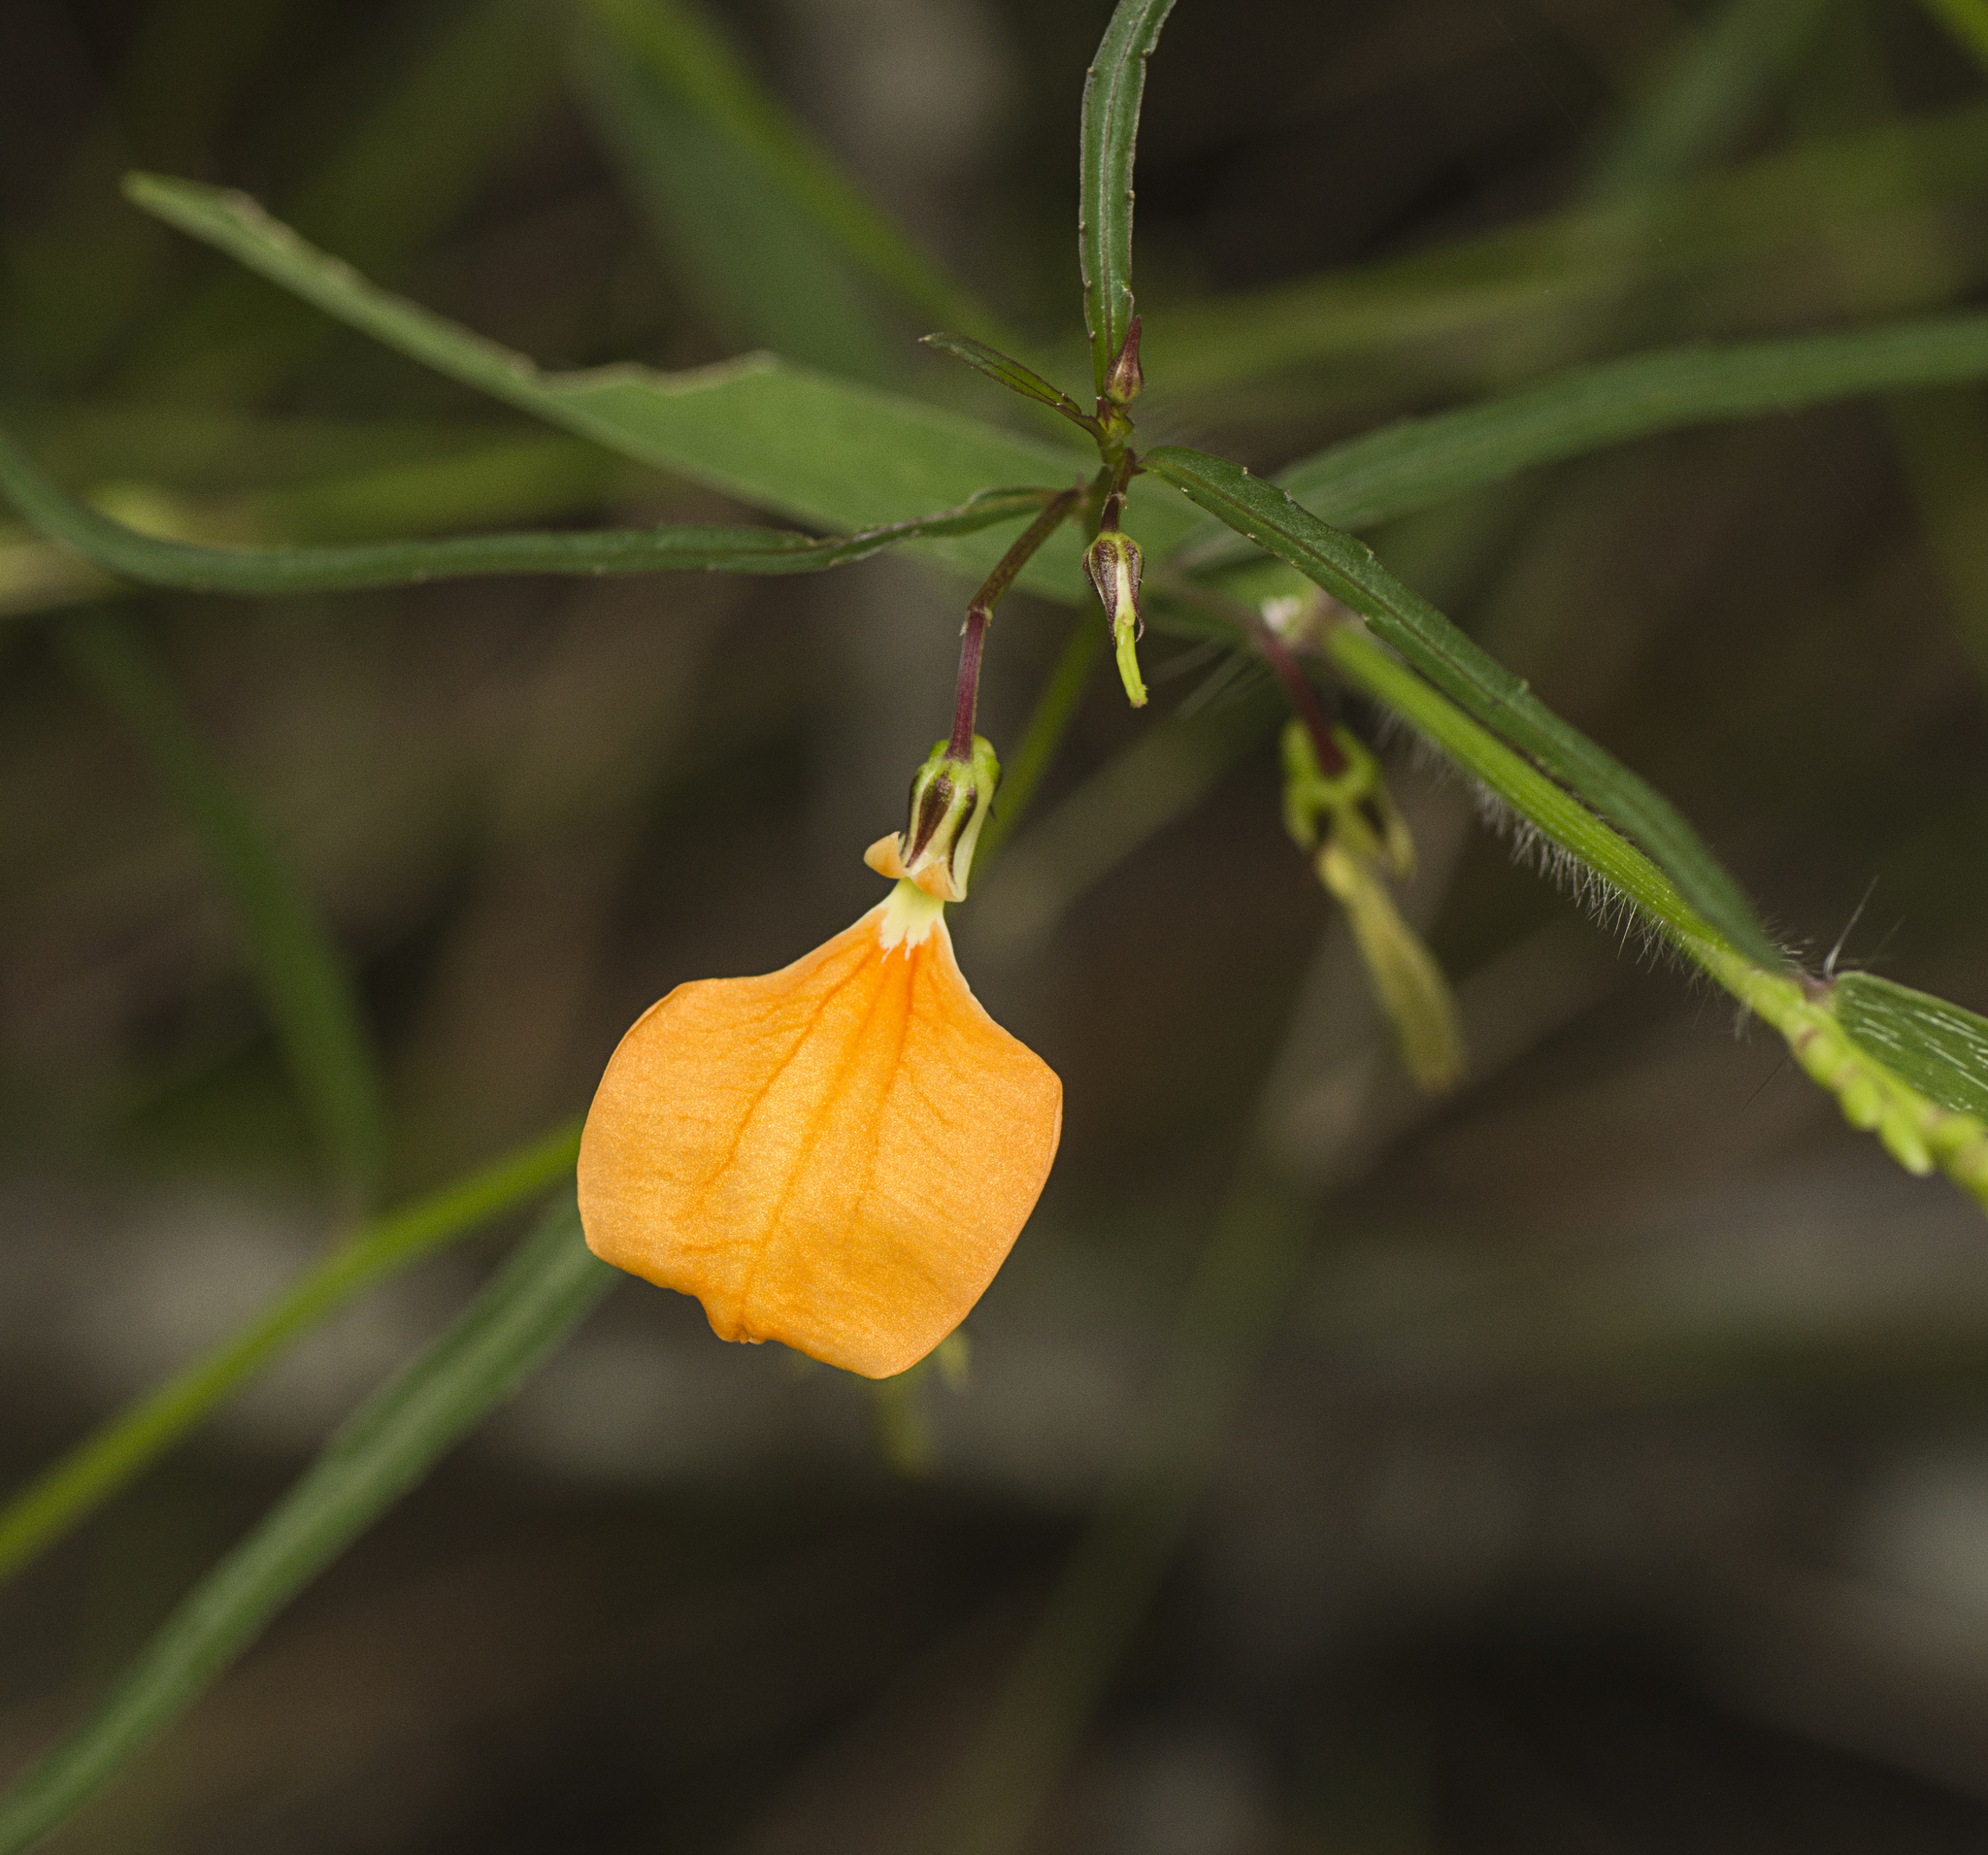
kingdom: Plantae
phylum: Tracheophyta
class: Magnoliopsida
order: Malpighiales
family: Violaceae
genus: Pigea
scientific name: Pigea stellarioides
